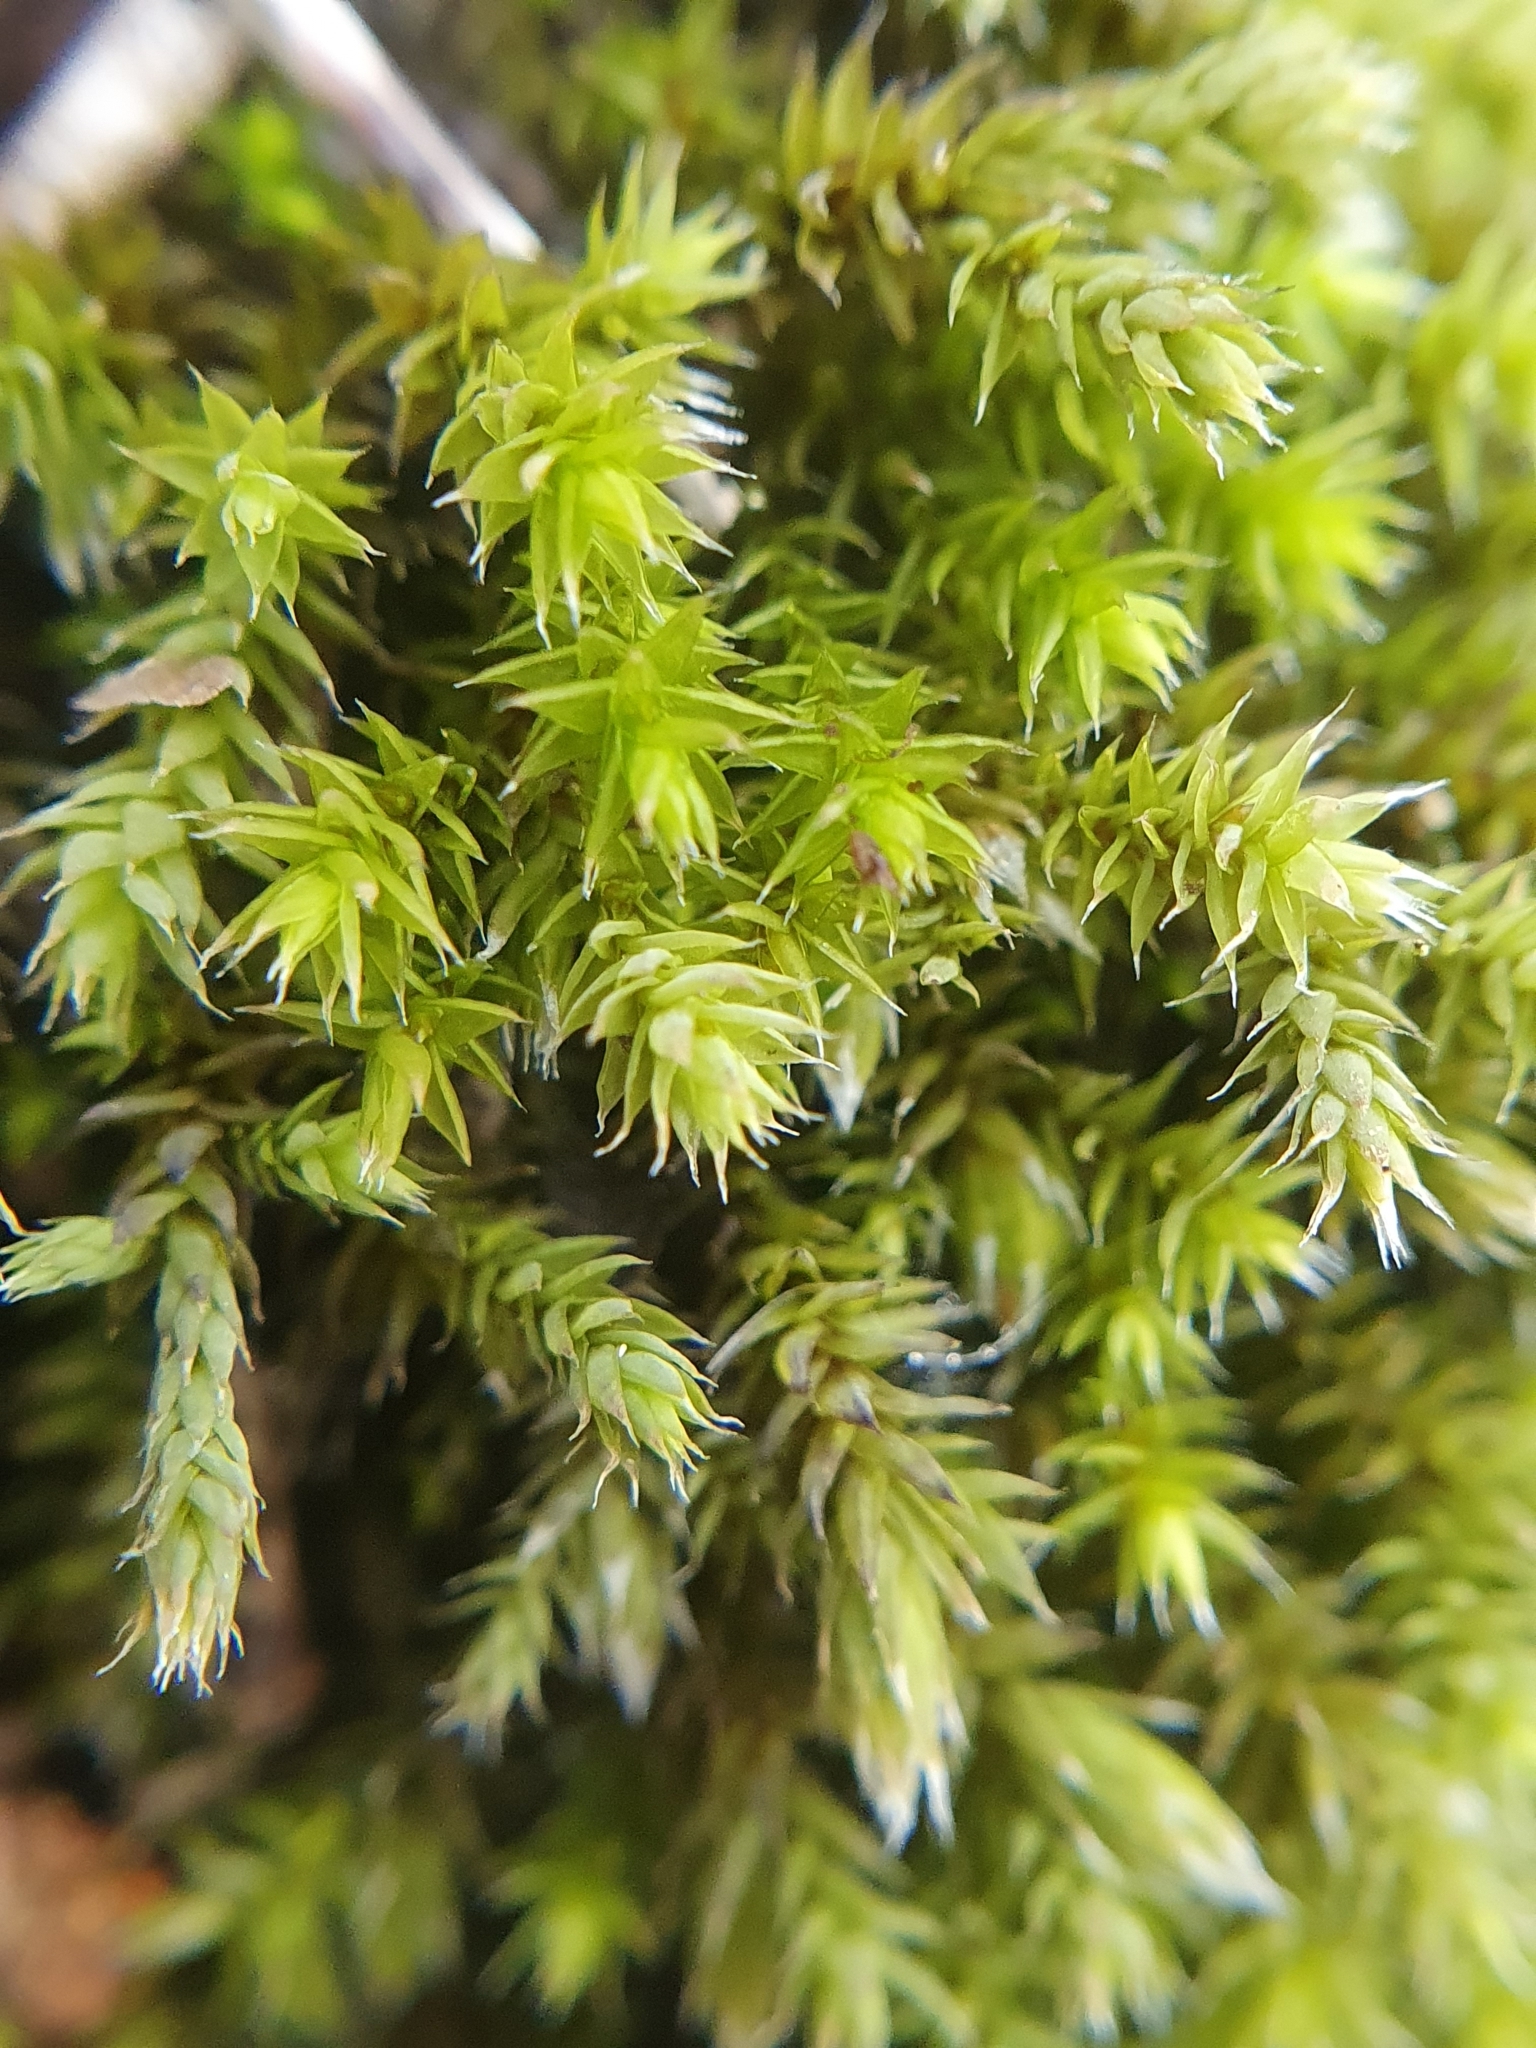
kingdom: Plantae
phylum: Bryophyta
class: Bryopsida
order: Hedwigiales
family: Hedwigiaceae
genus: Hedwigia
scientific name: Hedwigia ciliata
